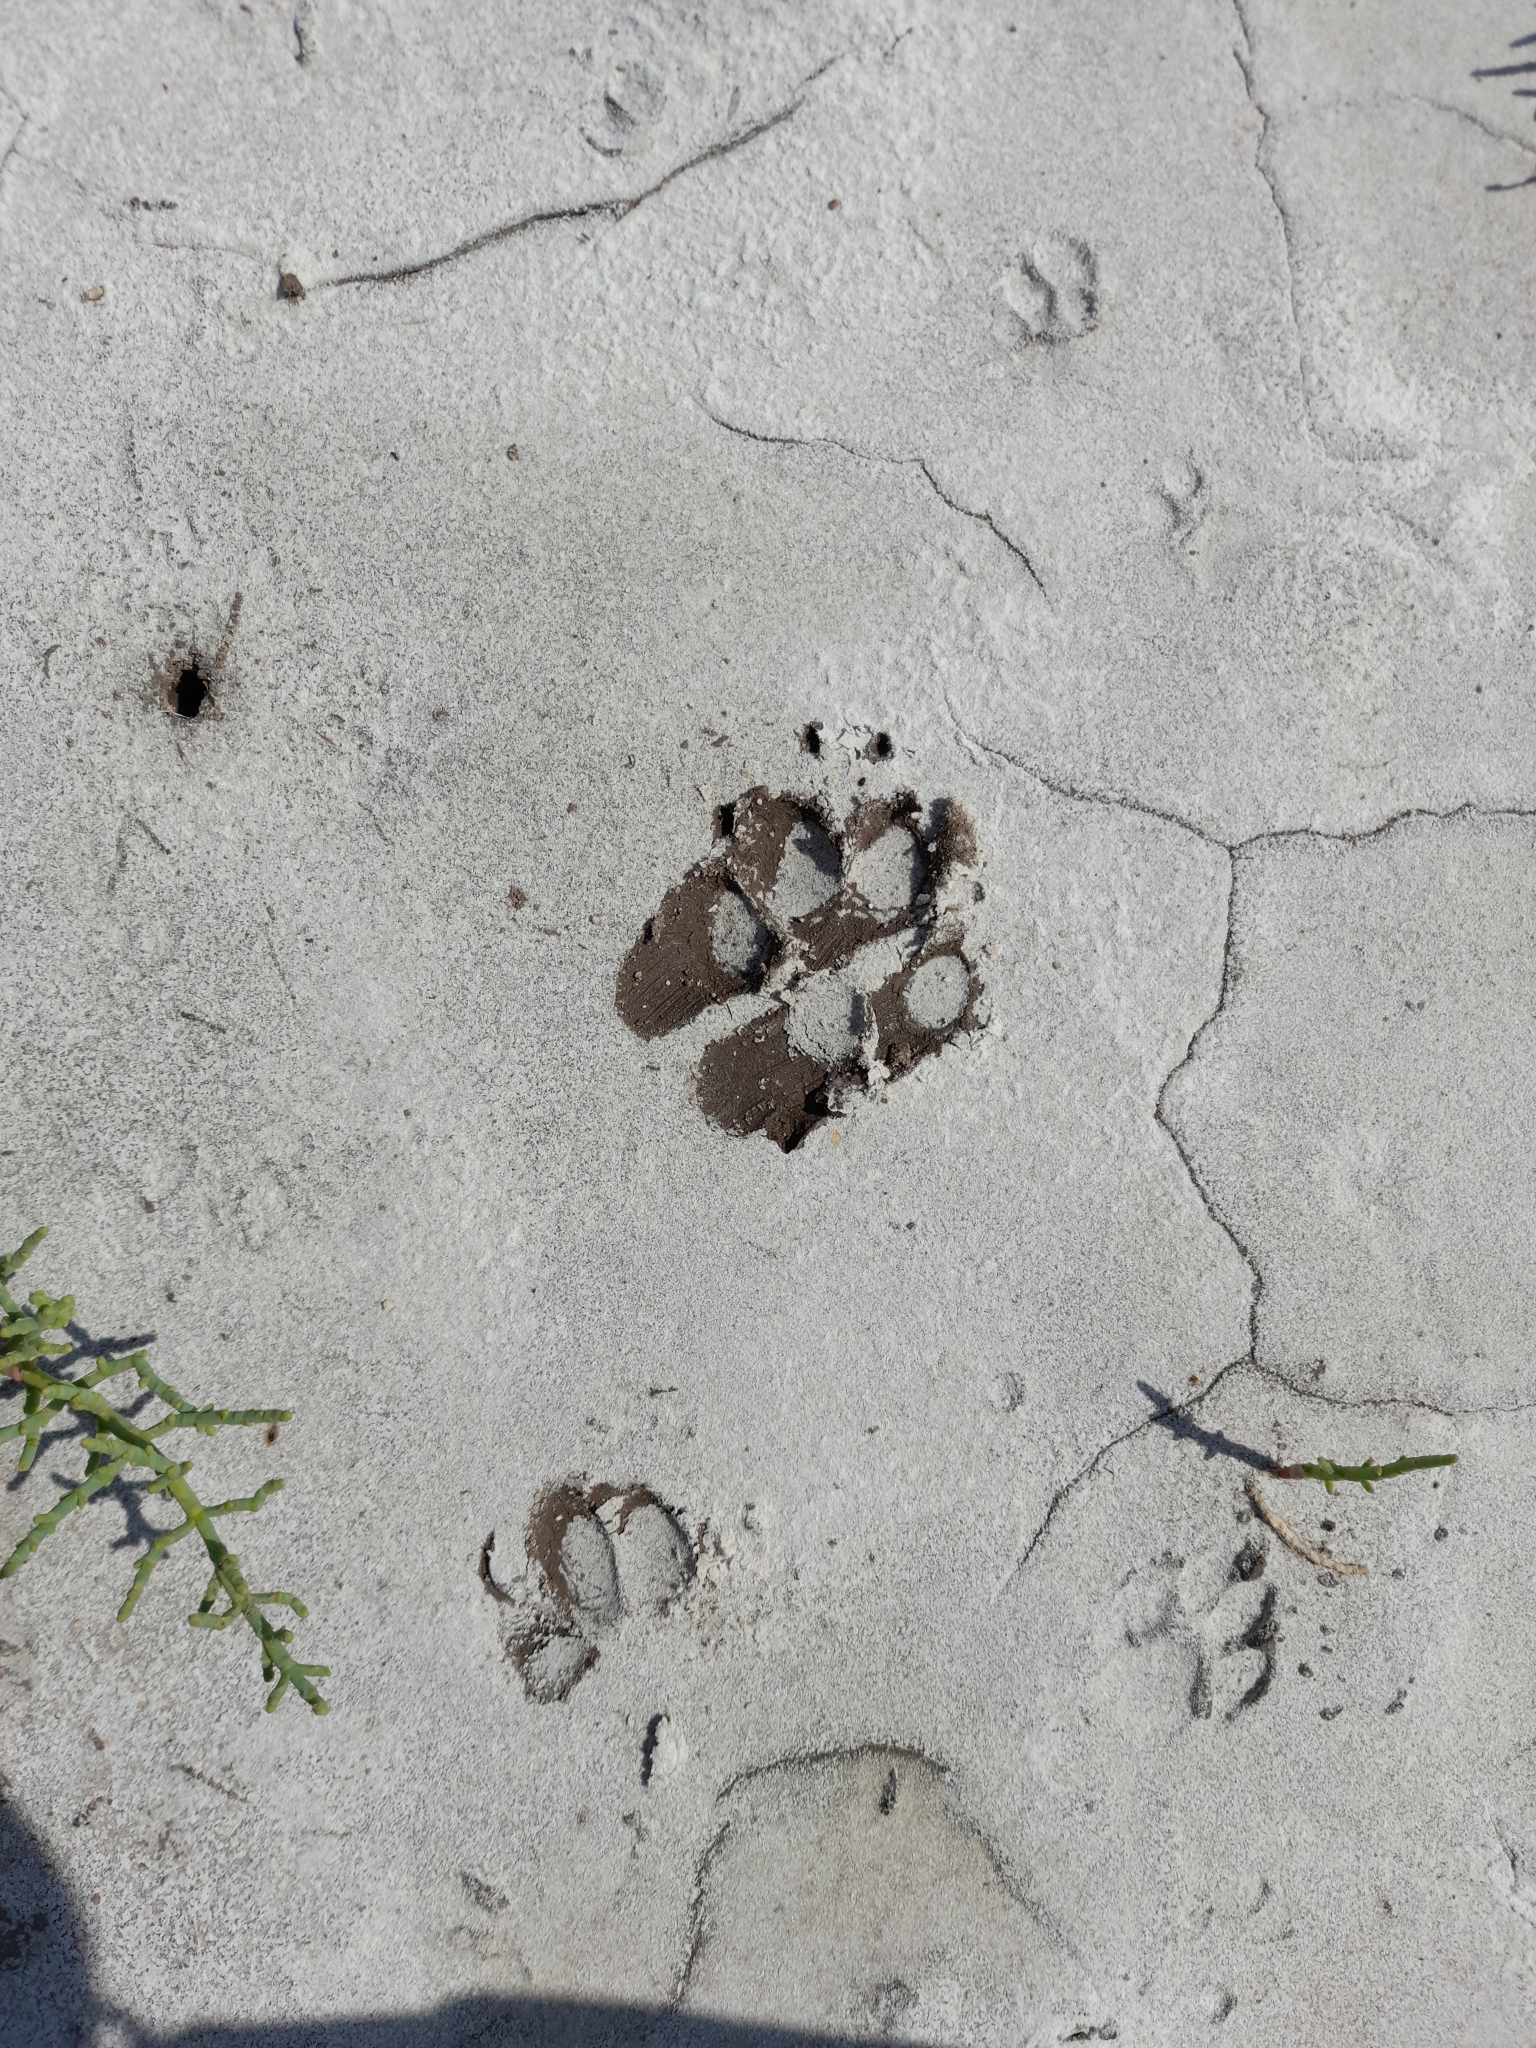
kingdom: Animalia
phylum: Chordata
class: Mammalia
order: Carnivora
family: Canidae
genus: Chrysocyon
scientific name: Chrysocyon brachyurus
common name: Maned wolf
